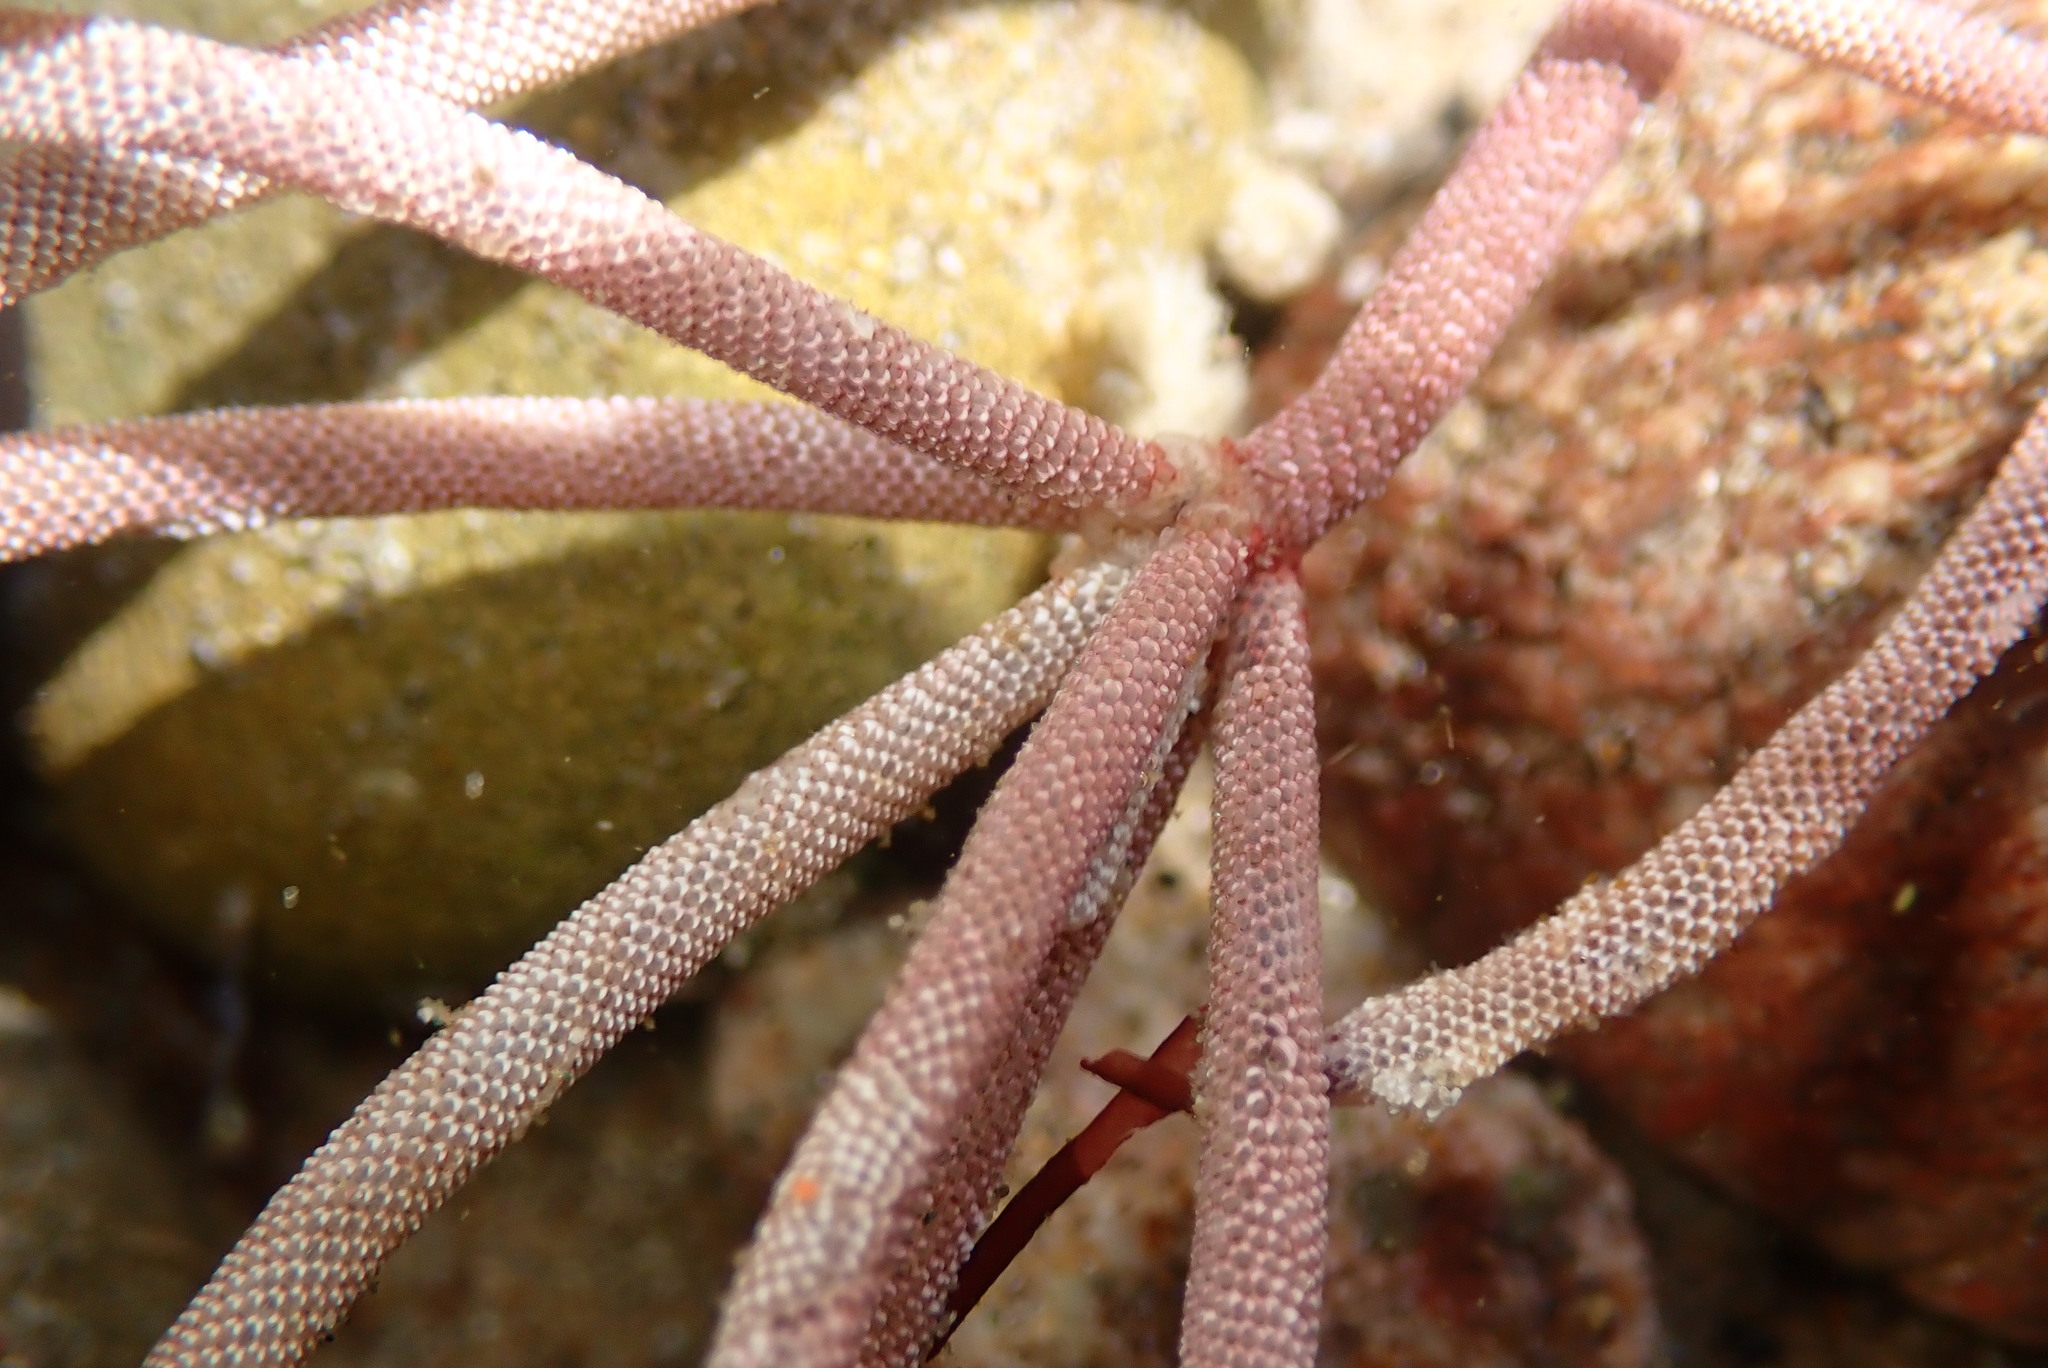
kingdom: Animalia
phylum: Bryozoa
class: Gymnolaemata
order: Cheilostomatida
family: Membraniporidae
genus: Jellyella
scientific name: Jellyella tuberculata
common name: Sargassum bryozoan
